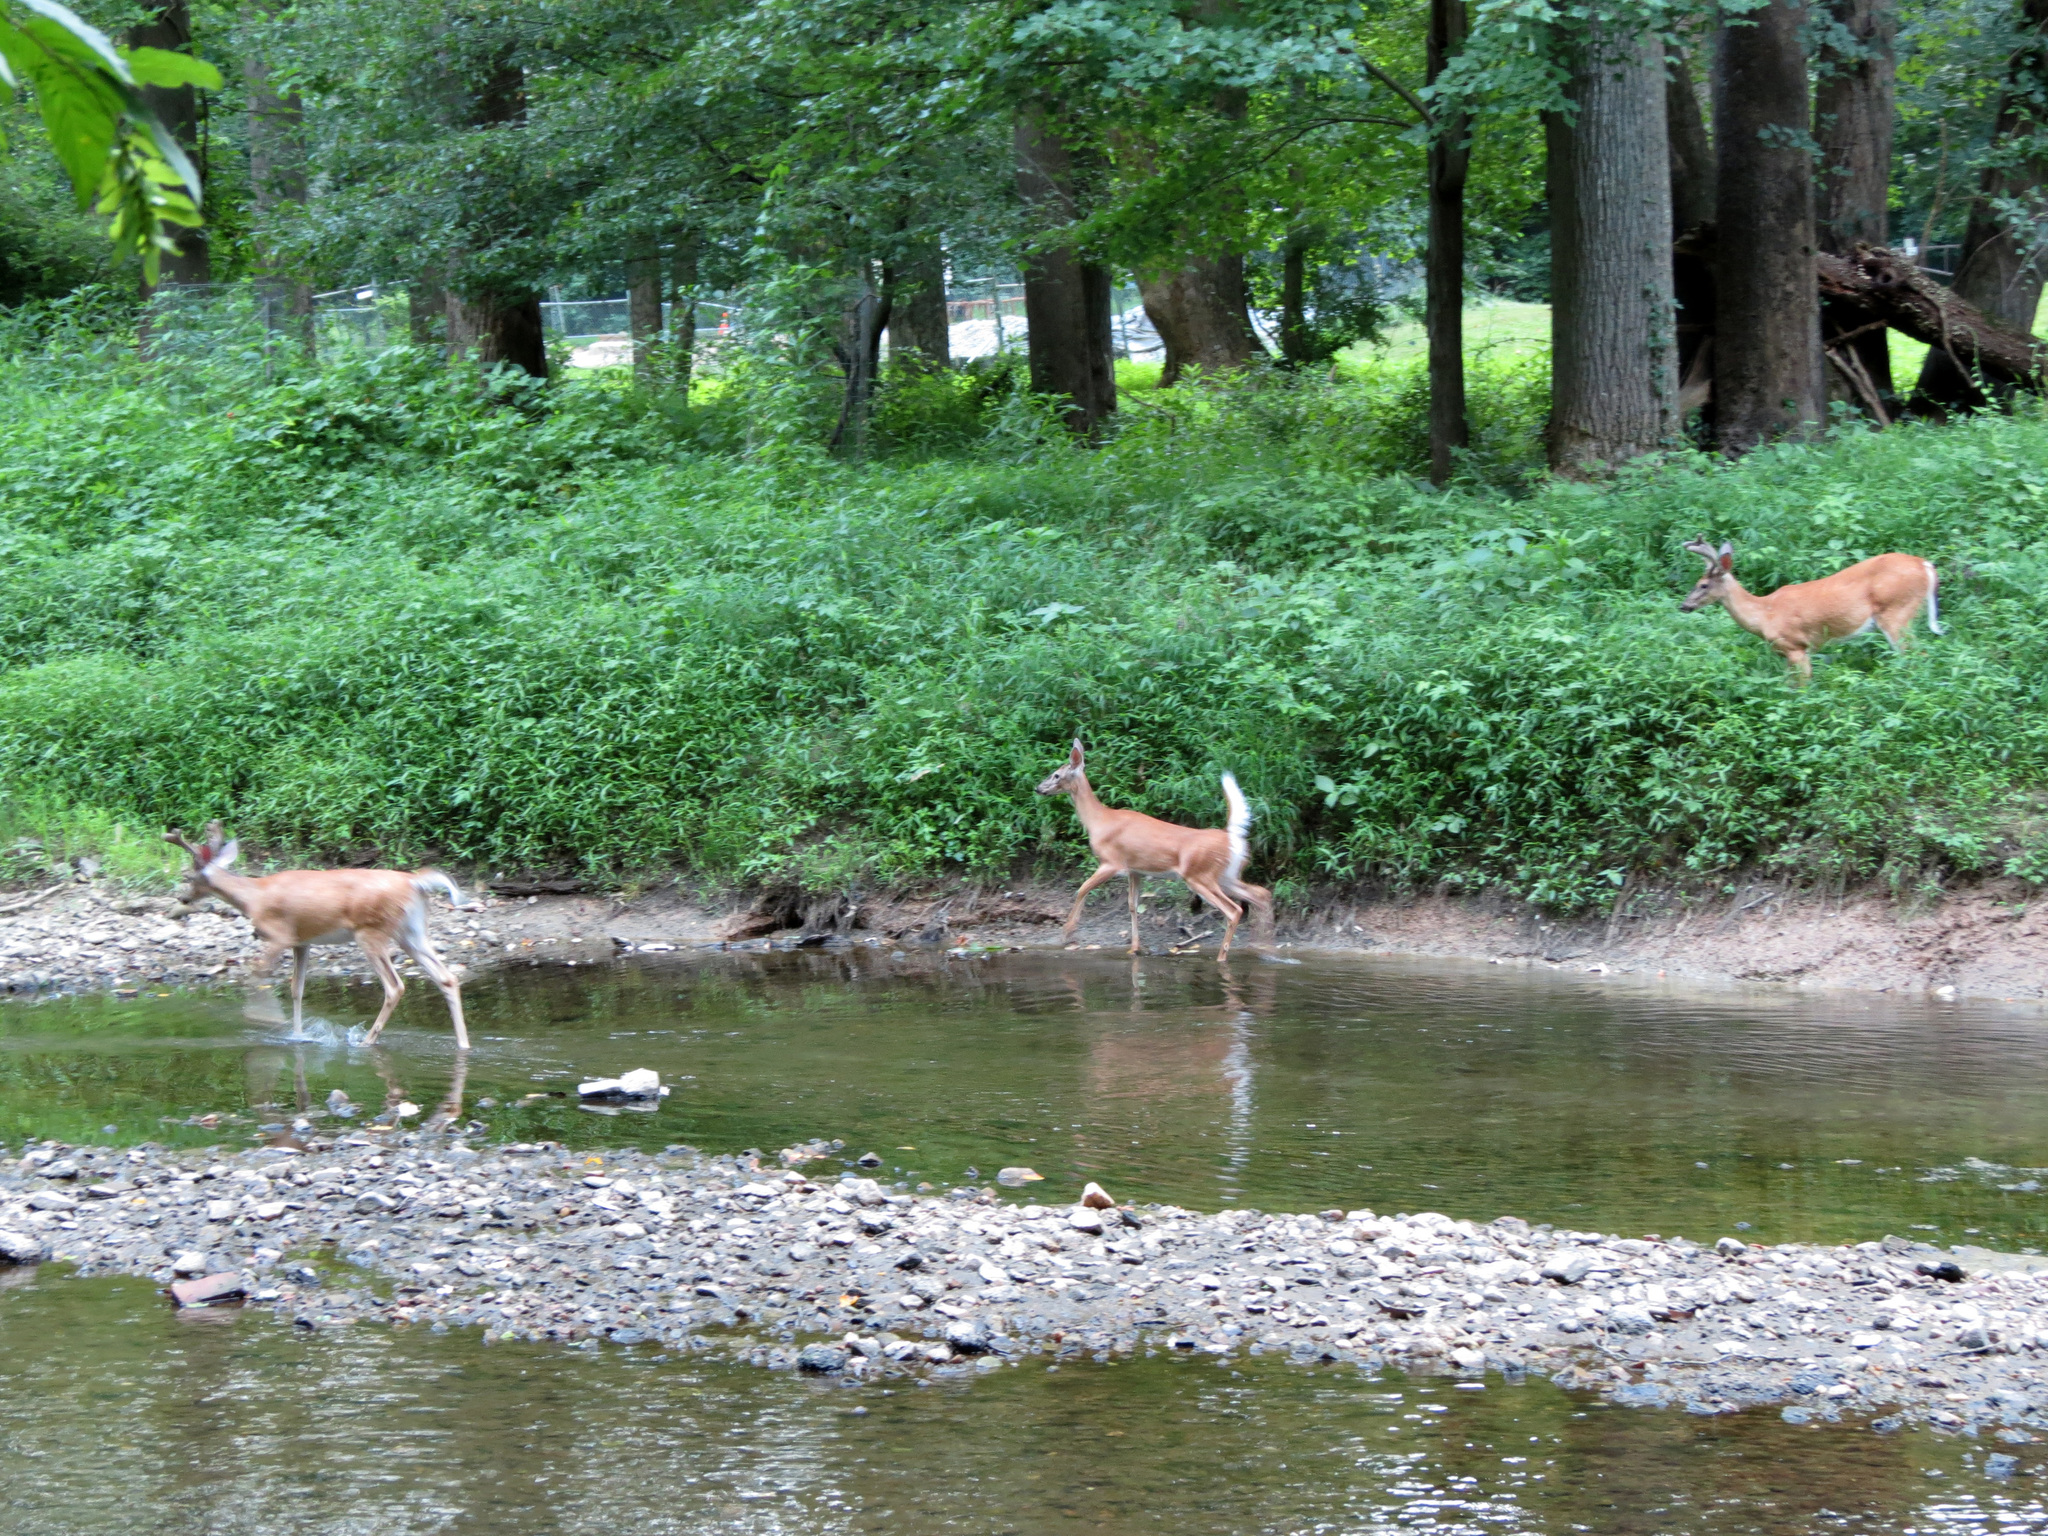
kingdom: Animalia
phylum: Chordata
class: Mammalia
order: Artiodactyla
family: Cervidae
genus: Odocoileus
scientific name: Odocoileus virginianus
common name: White-tailed deer
